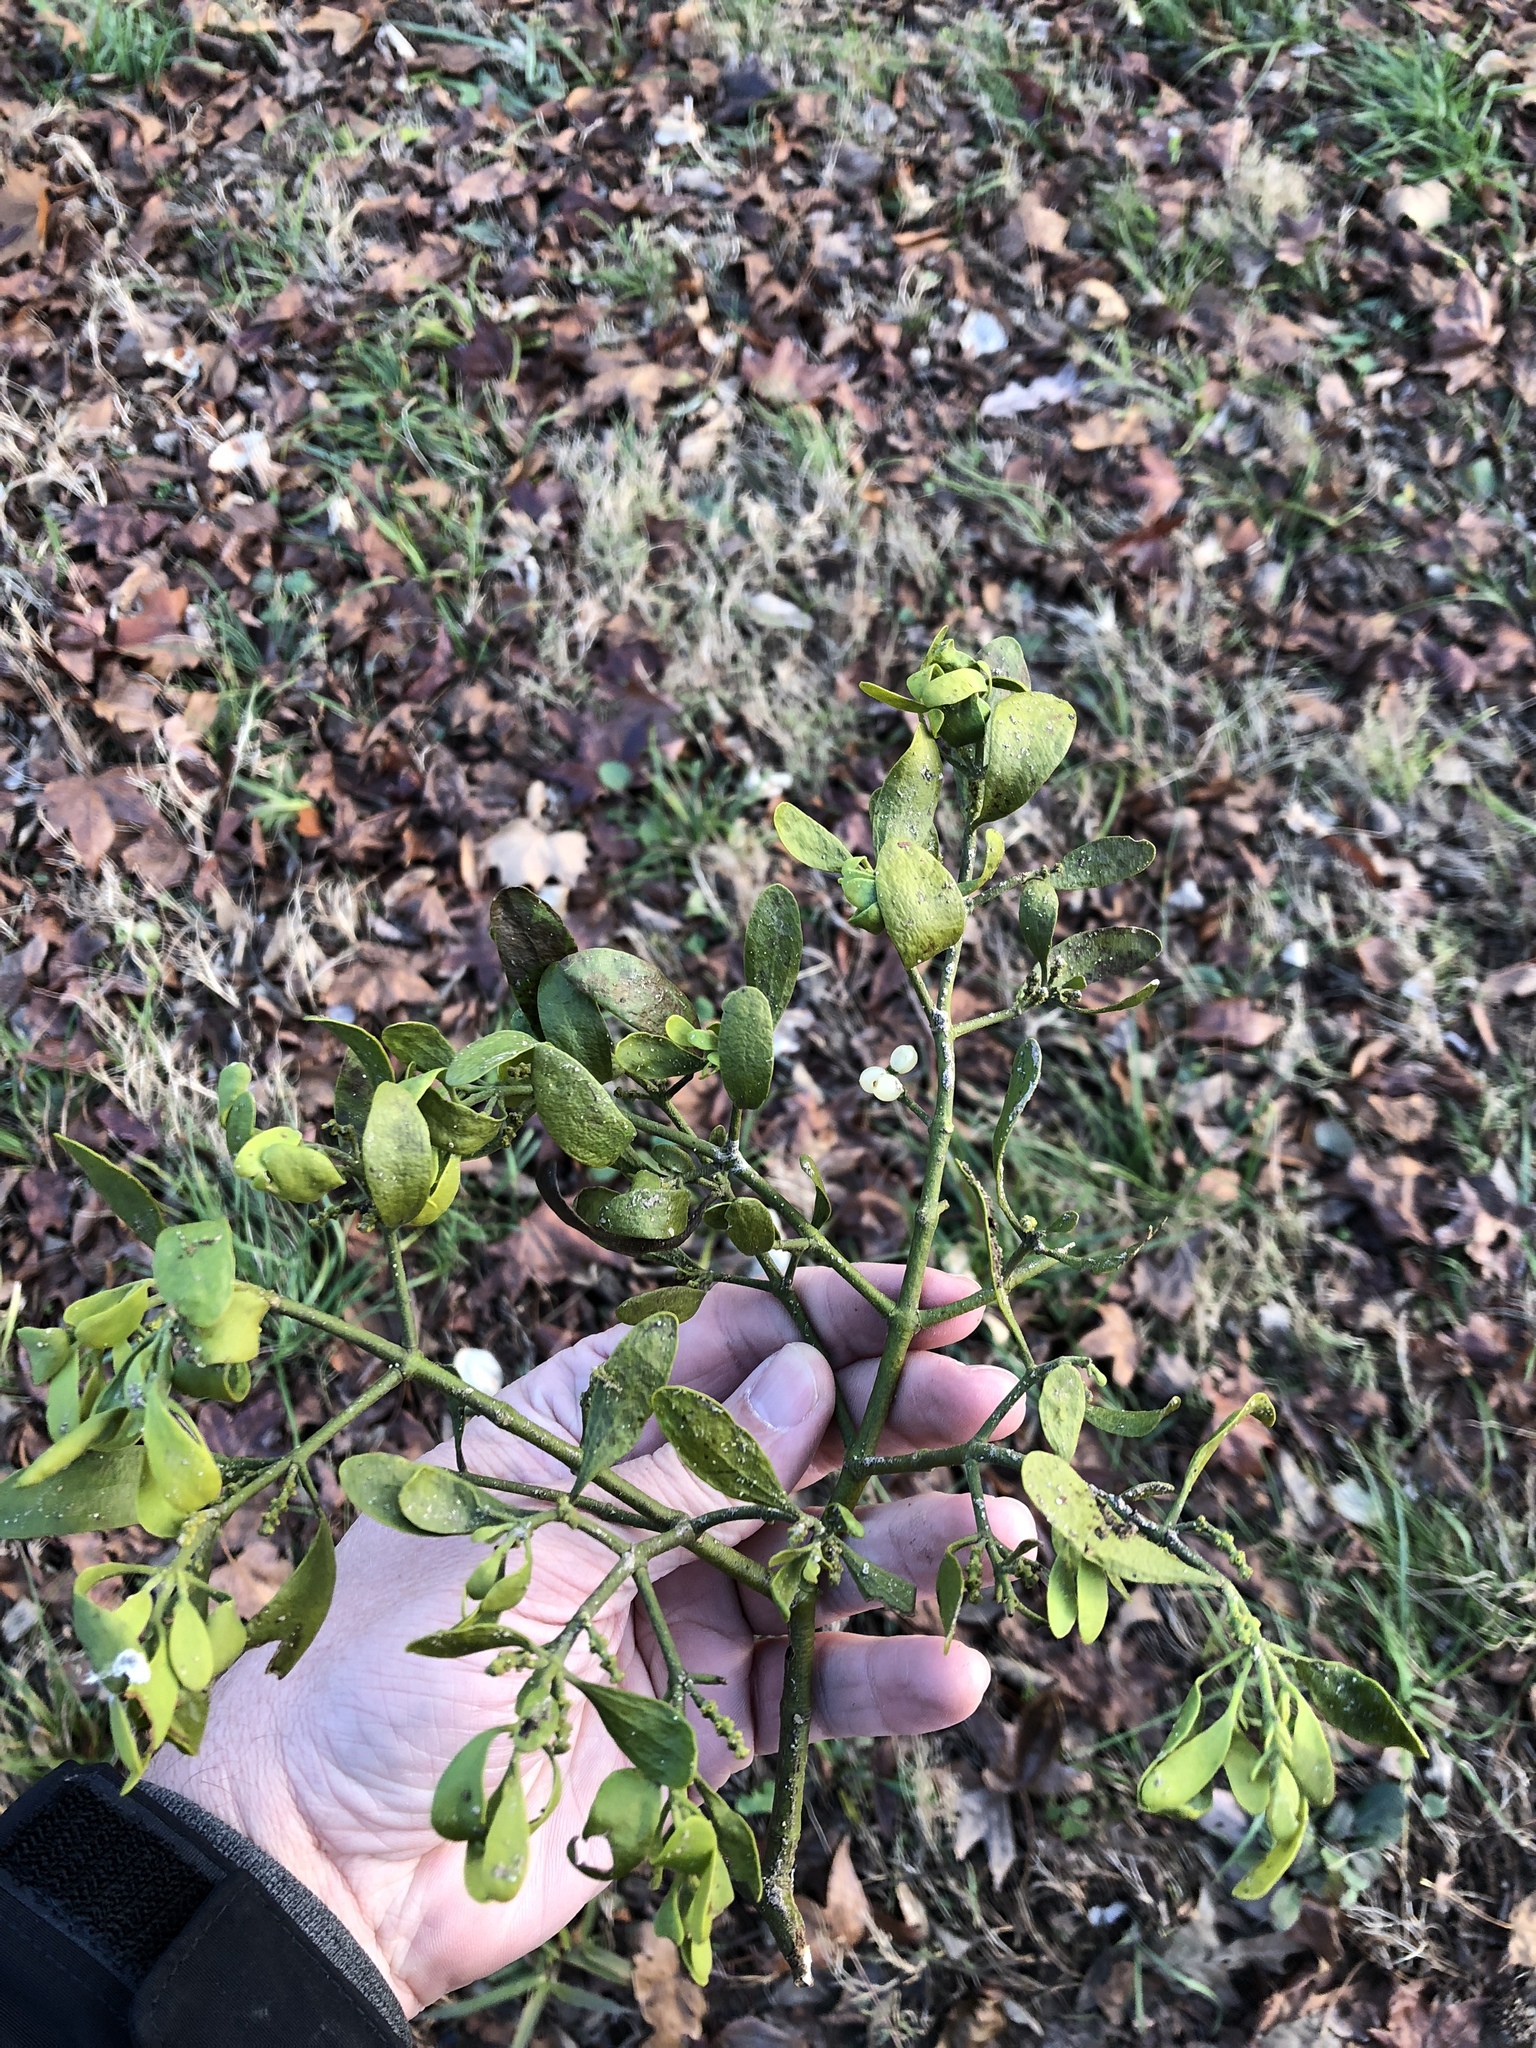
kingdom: Plantae
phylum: Tracheophyta
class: Magnoliopsida
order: Santalales
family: Viscaceae
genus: Phoradendron
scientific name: Phoradendron leucarpum
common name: Pacific mistletoe
